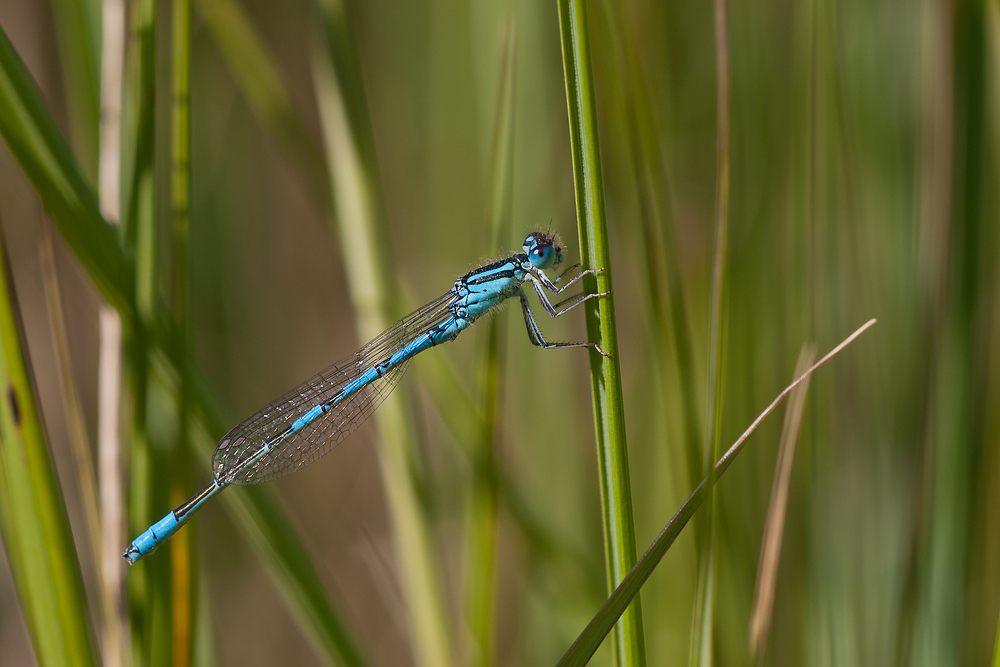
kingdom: Animalia
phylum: Arthropoda
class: Insecta
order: Odonata
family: Coenagrionidae
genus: Coenagrion
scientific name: Coenagrion scitulum
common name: Dainty bluet
